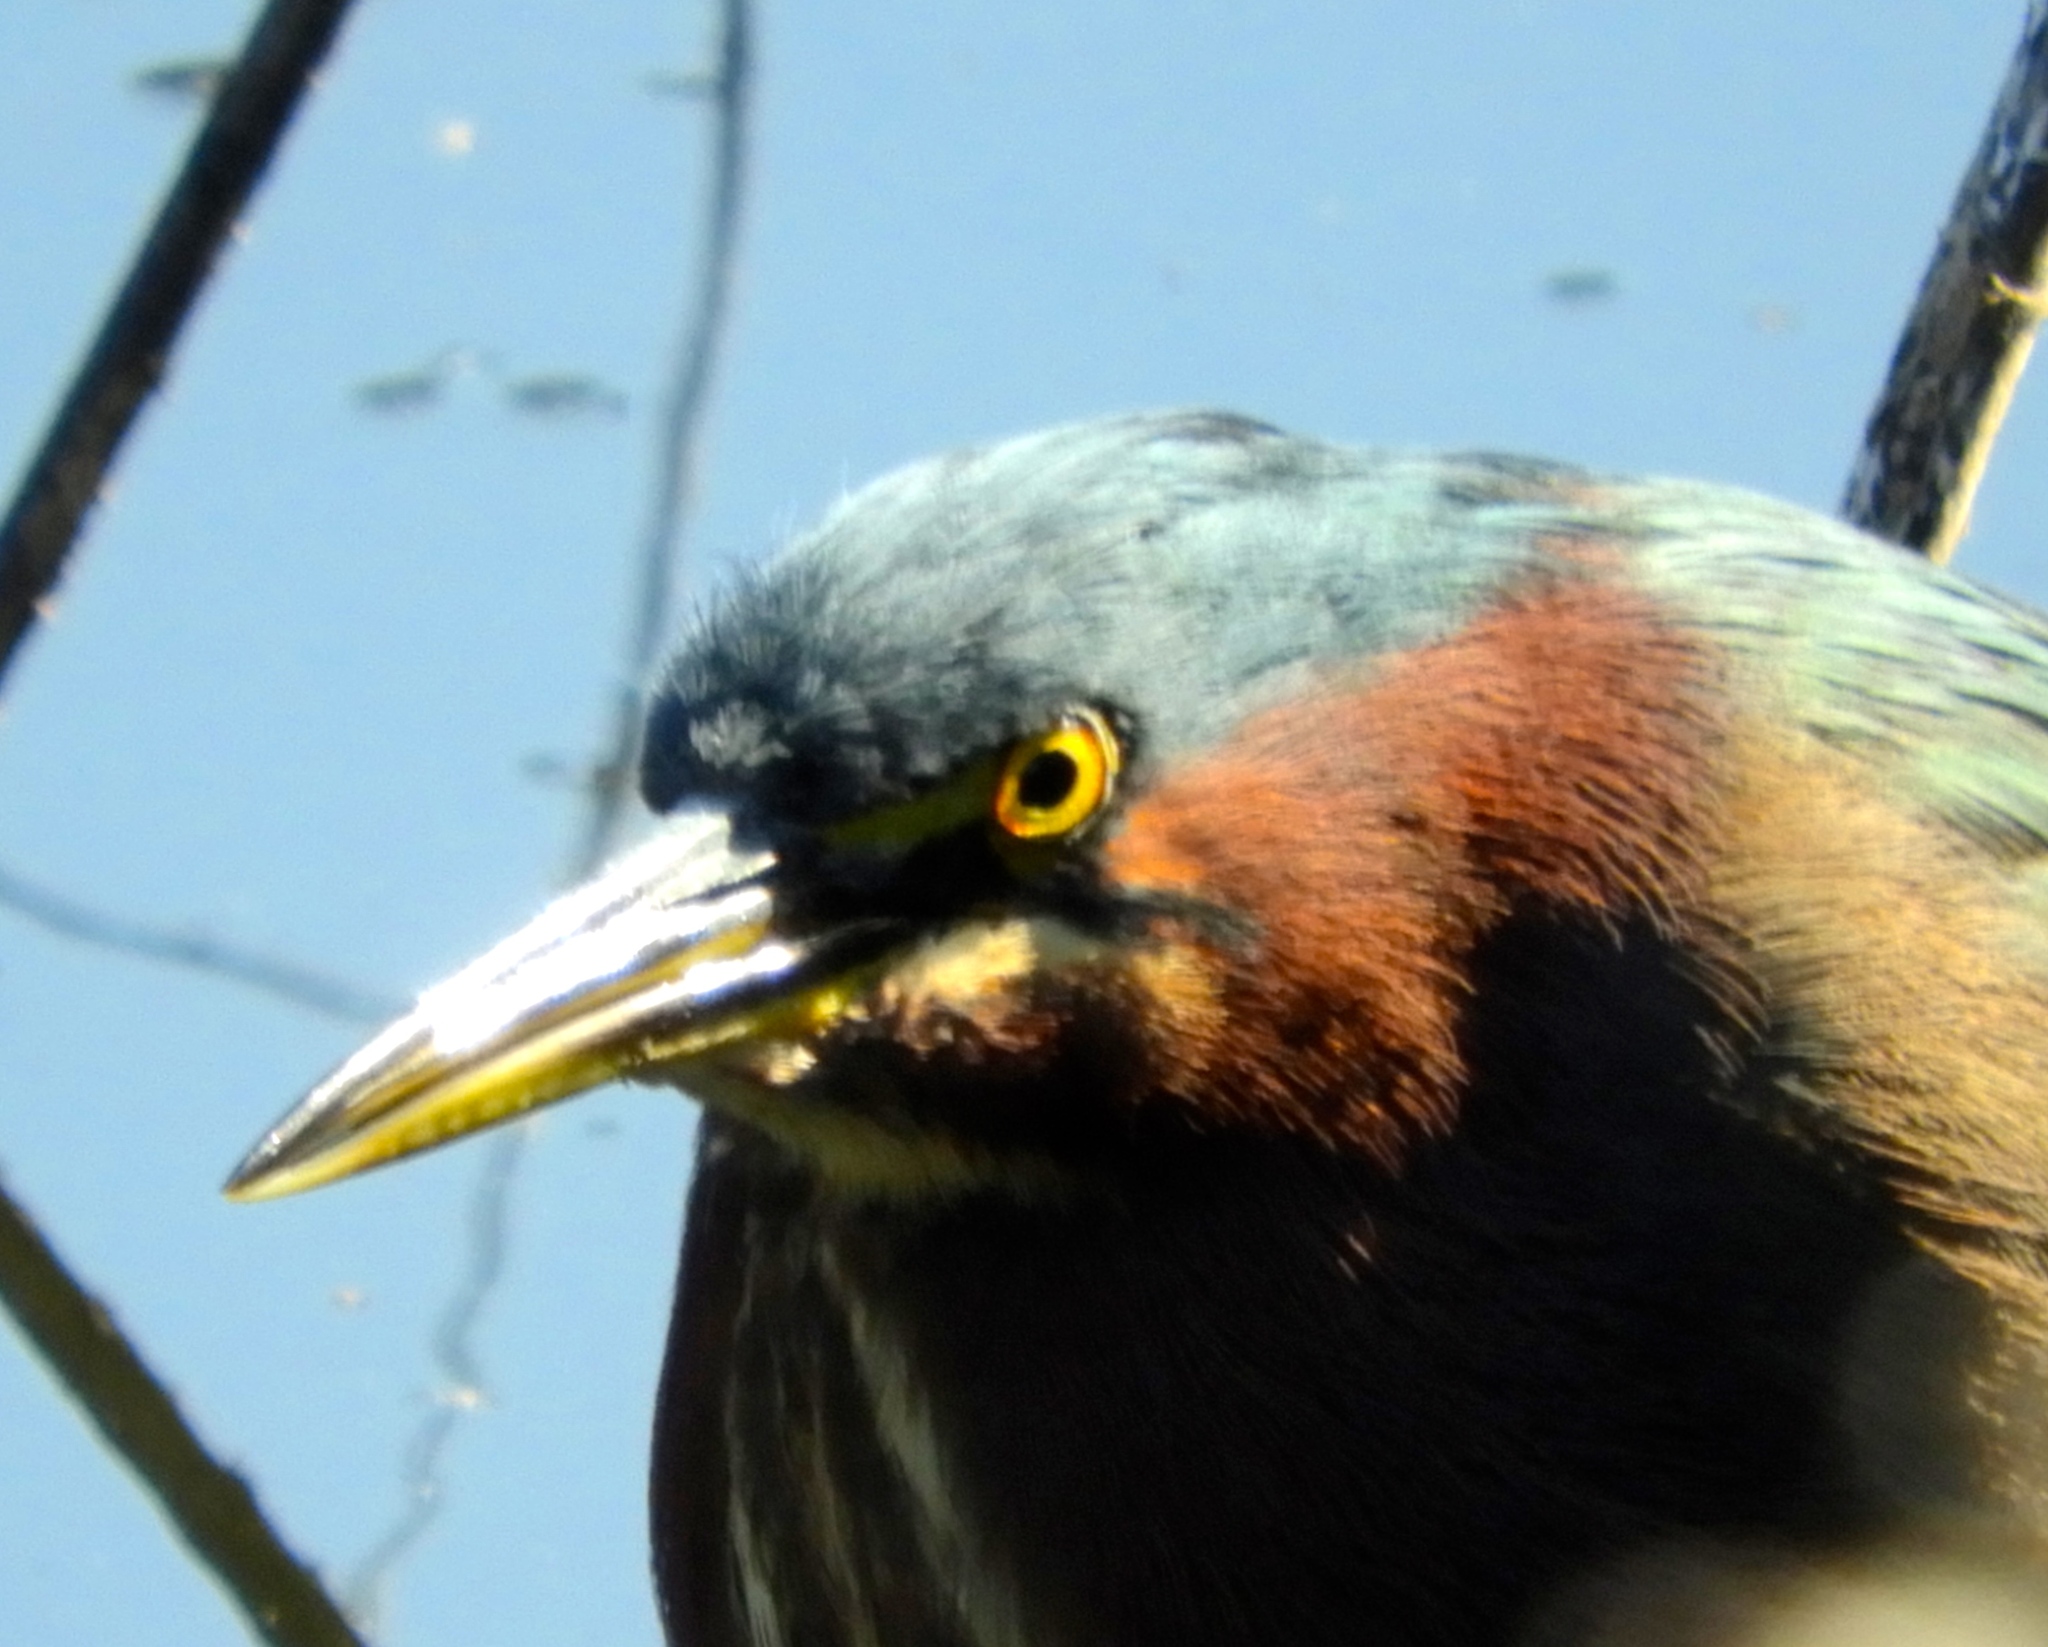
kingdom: Animalia
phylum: Chordata
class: Aves
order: Pelecaniformes
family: Ardeidae
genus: Butorides
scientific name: Butorides virescens
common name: Green heron
